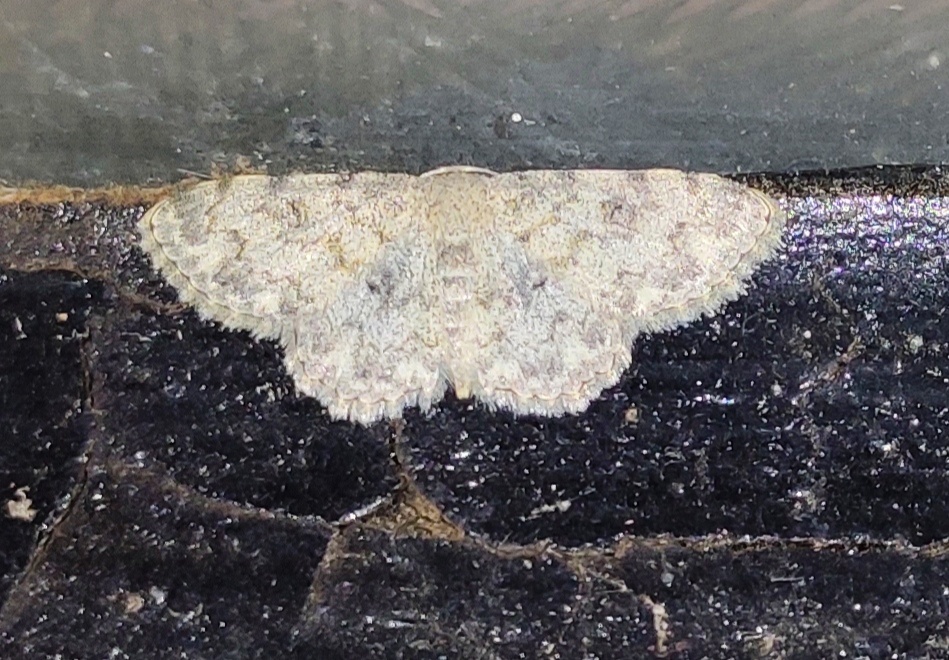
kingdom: Animalia
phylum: Arthropoda
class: Insecta
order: Lepidoptera
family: Geometridae
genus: Scopula
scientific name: Scopula fibulata
